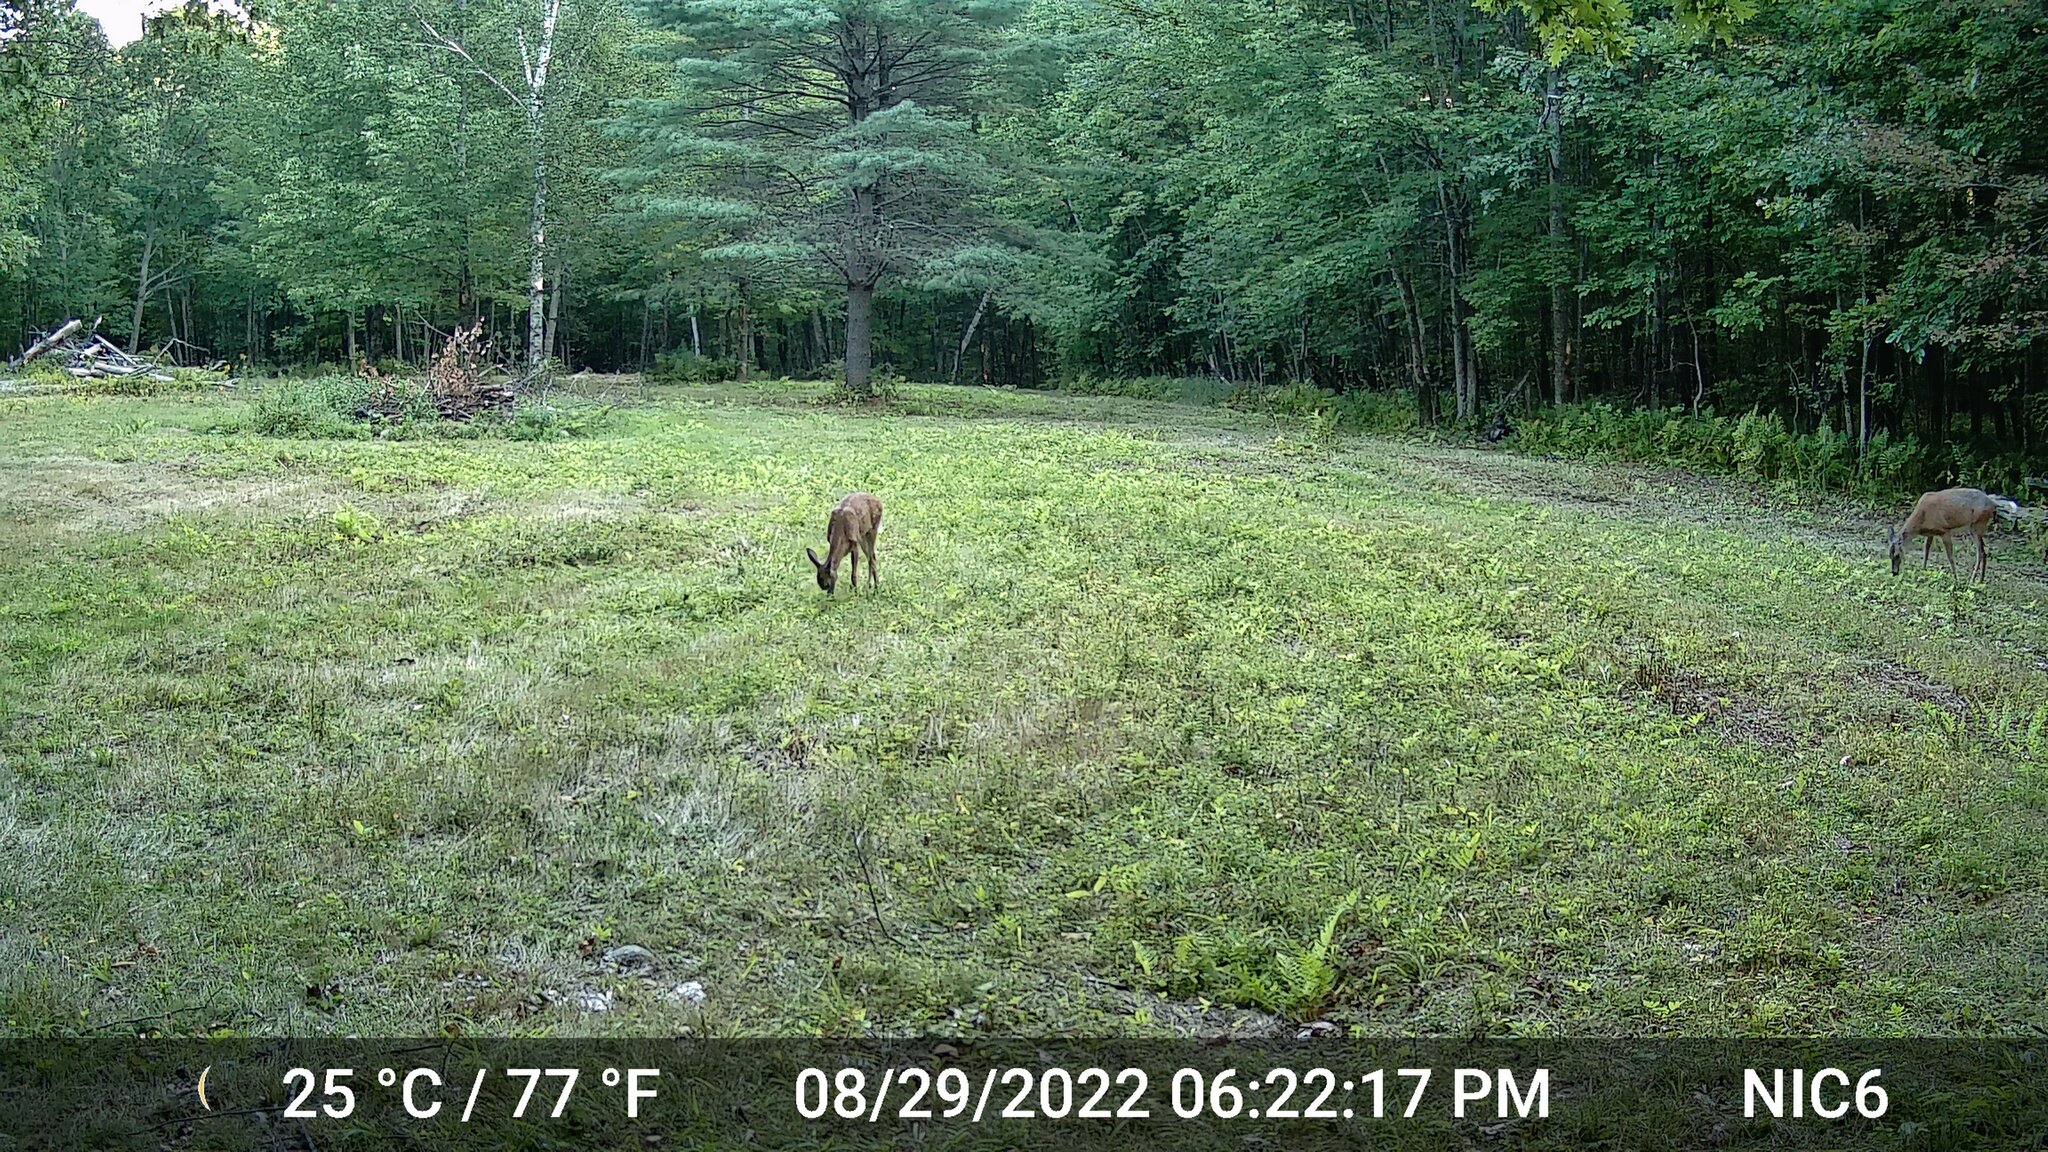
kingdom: Animalia
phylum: Chordata
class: Mammalia
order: Artiodactyla
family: Cervidae
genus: Odocoileus
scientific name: Odocoileus virginianus
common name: White-tailed deer
